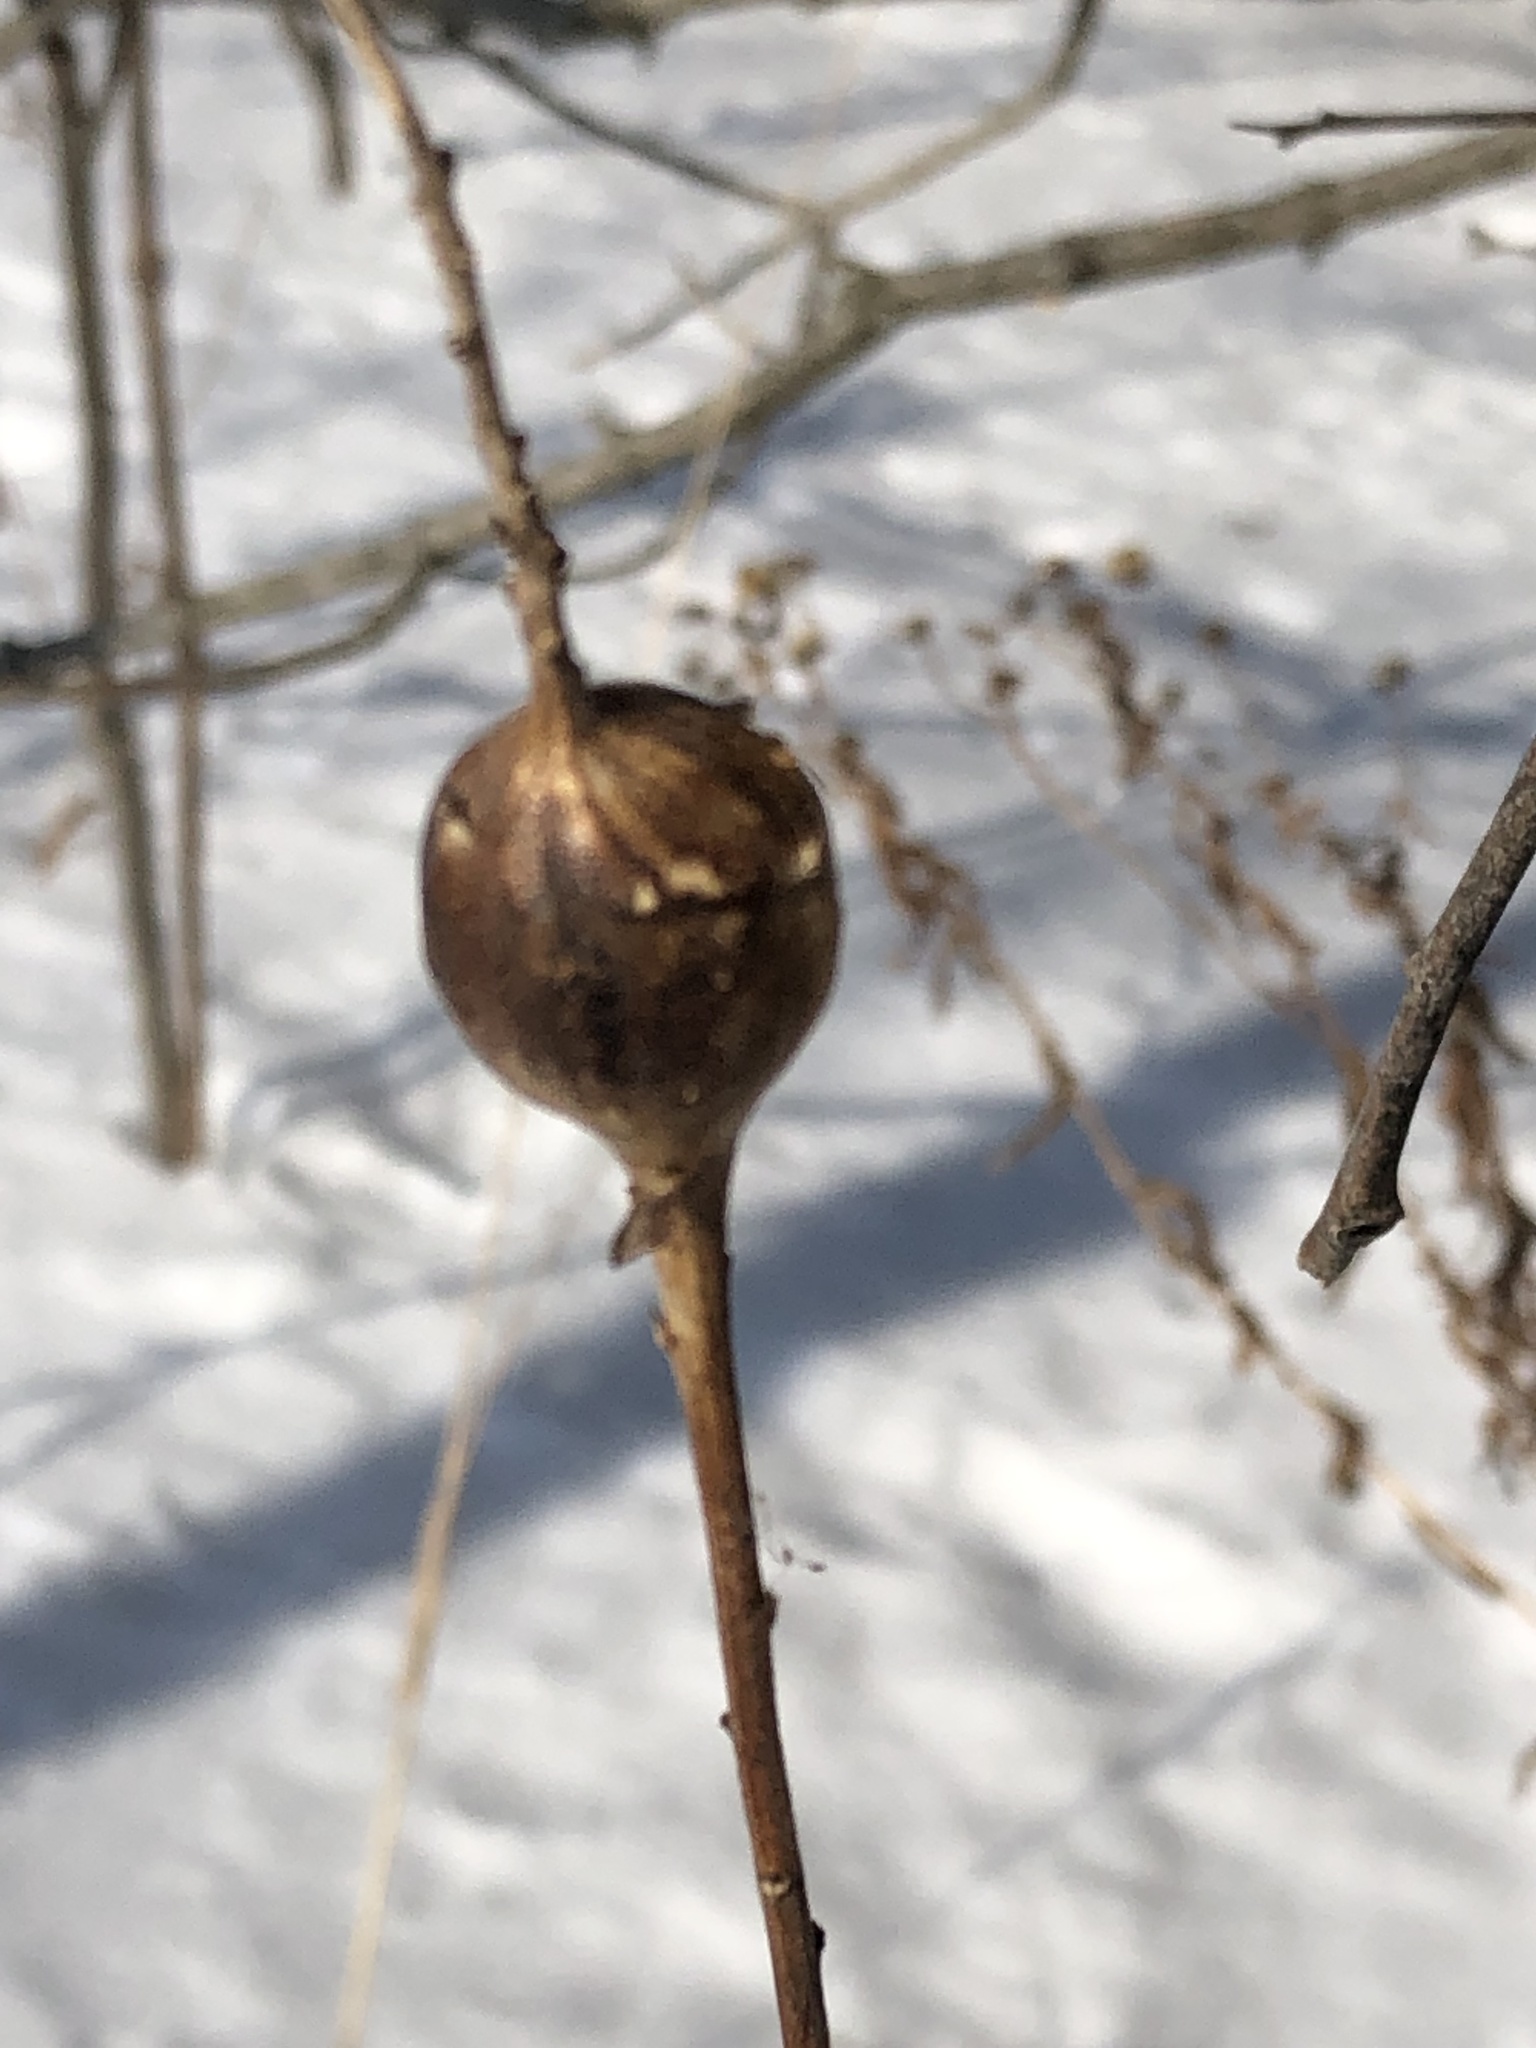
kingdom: Animalia
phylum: Arthropoda
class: Insecta
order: Diptera
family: Tephritidae
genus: Eurosta
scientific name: Eurosta solidaginis
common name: Goldenrod gall fly
